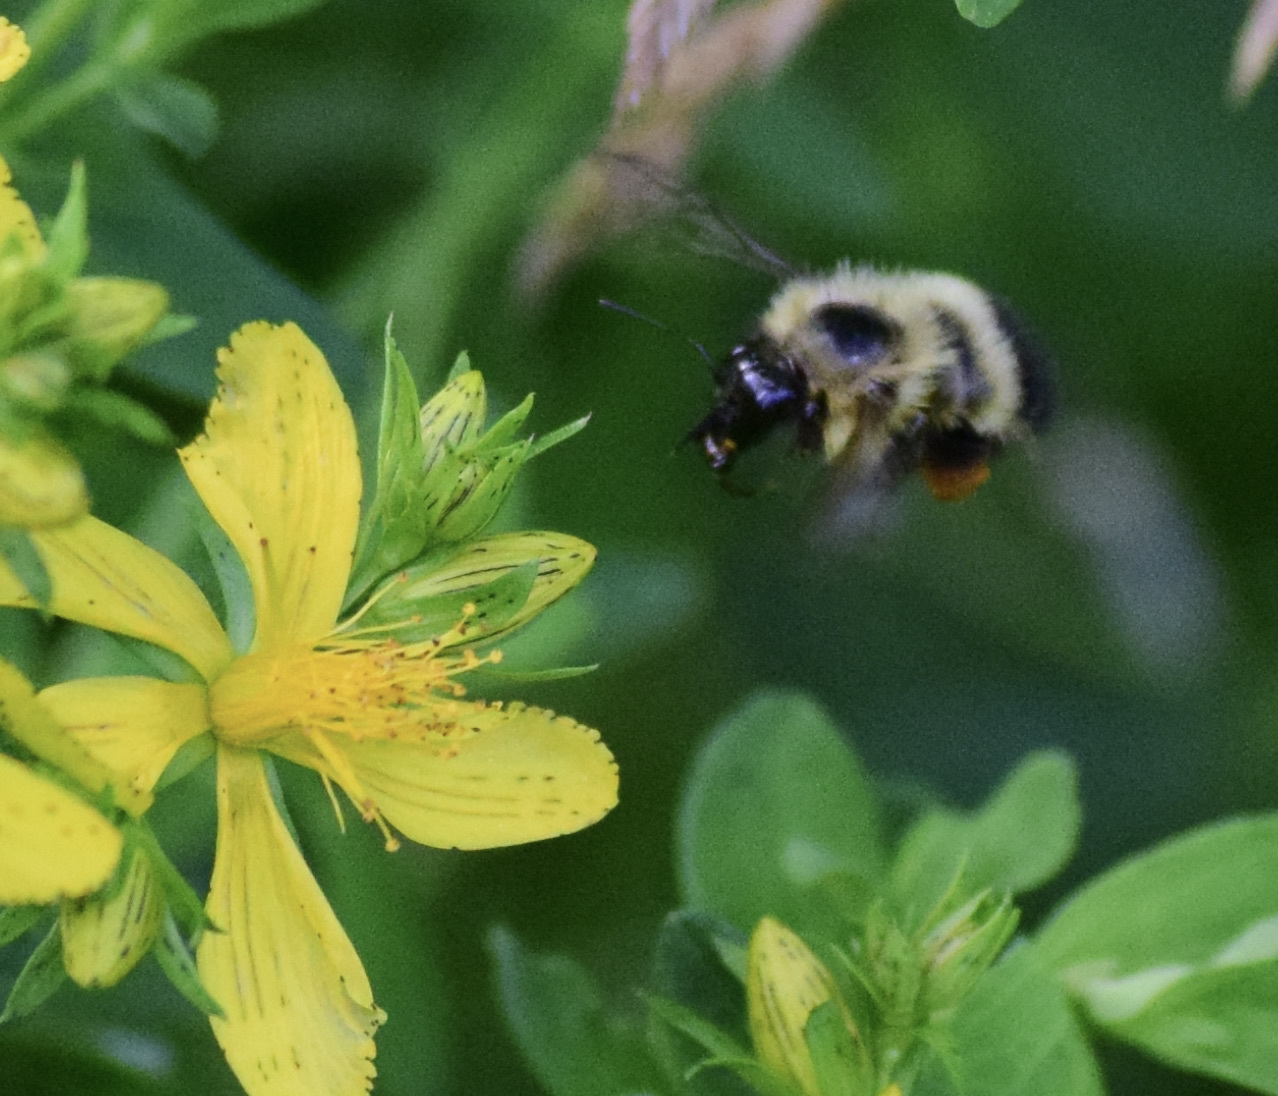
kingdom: Animalia
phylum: Arthropoda
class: Insecta
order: Hymenoptera
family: Apidae
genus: Bombus
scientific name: Bombus vagans
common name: Half-black bumble bee
